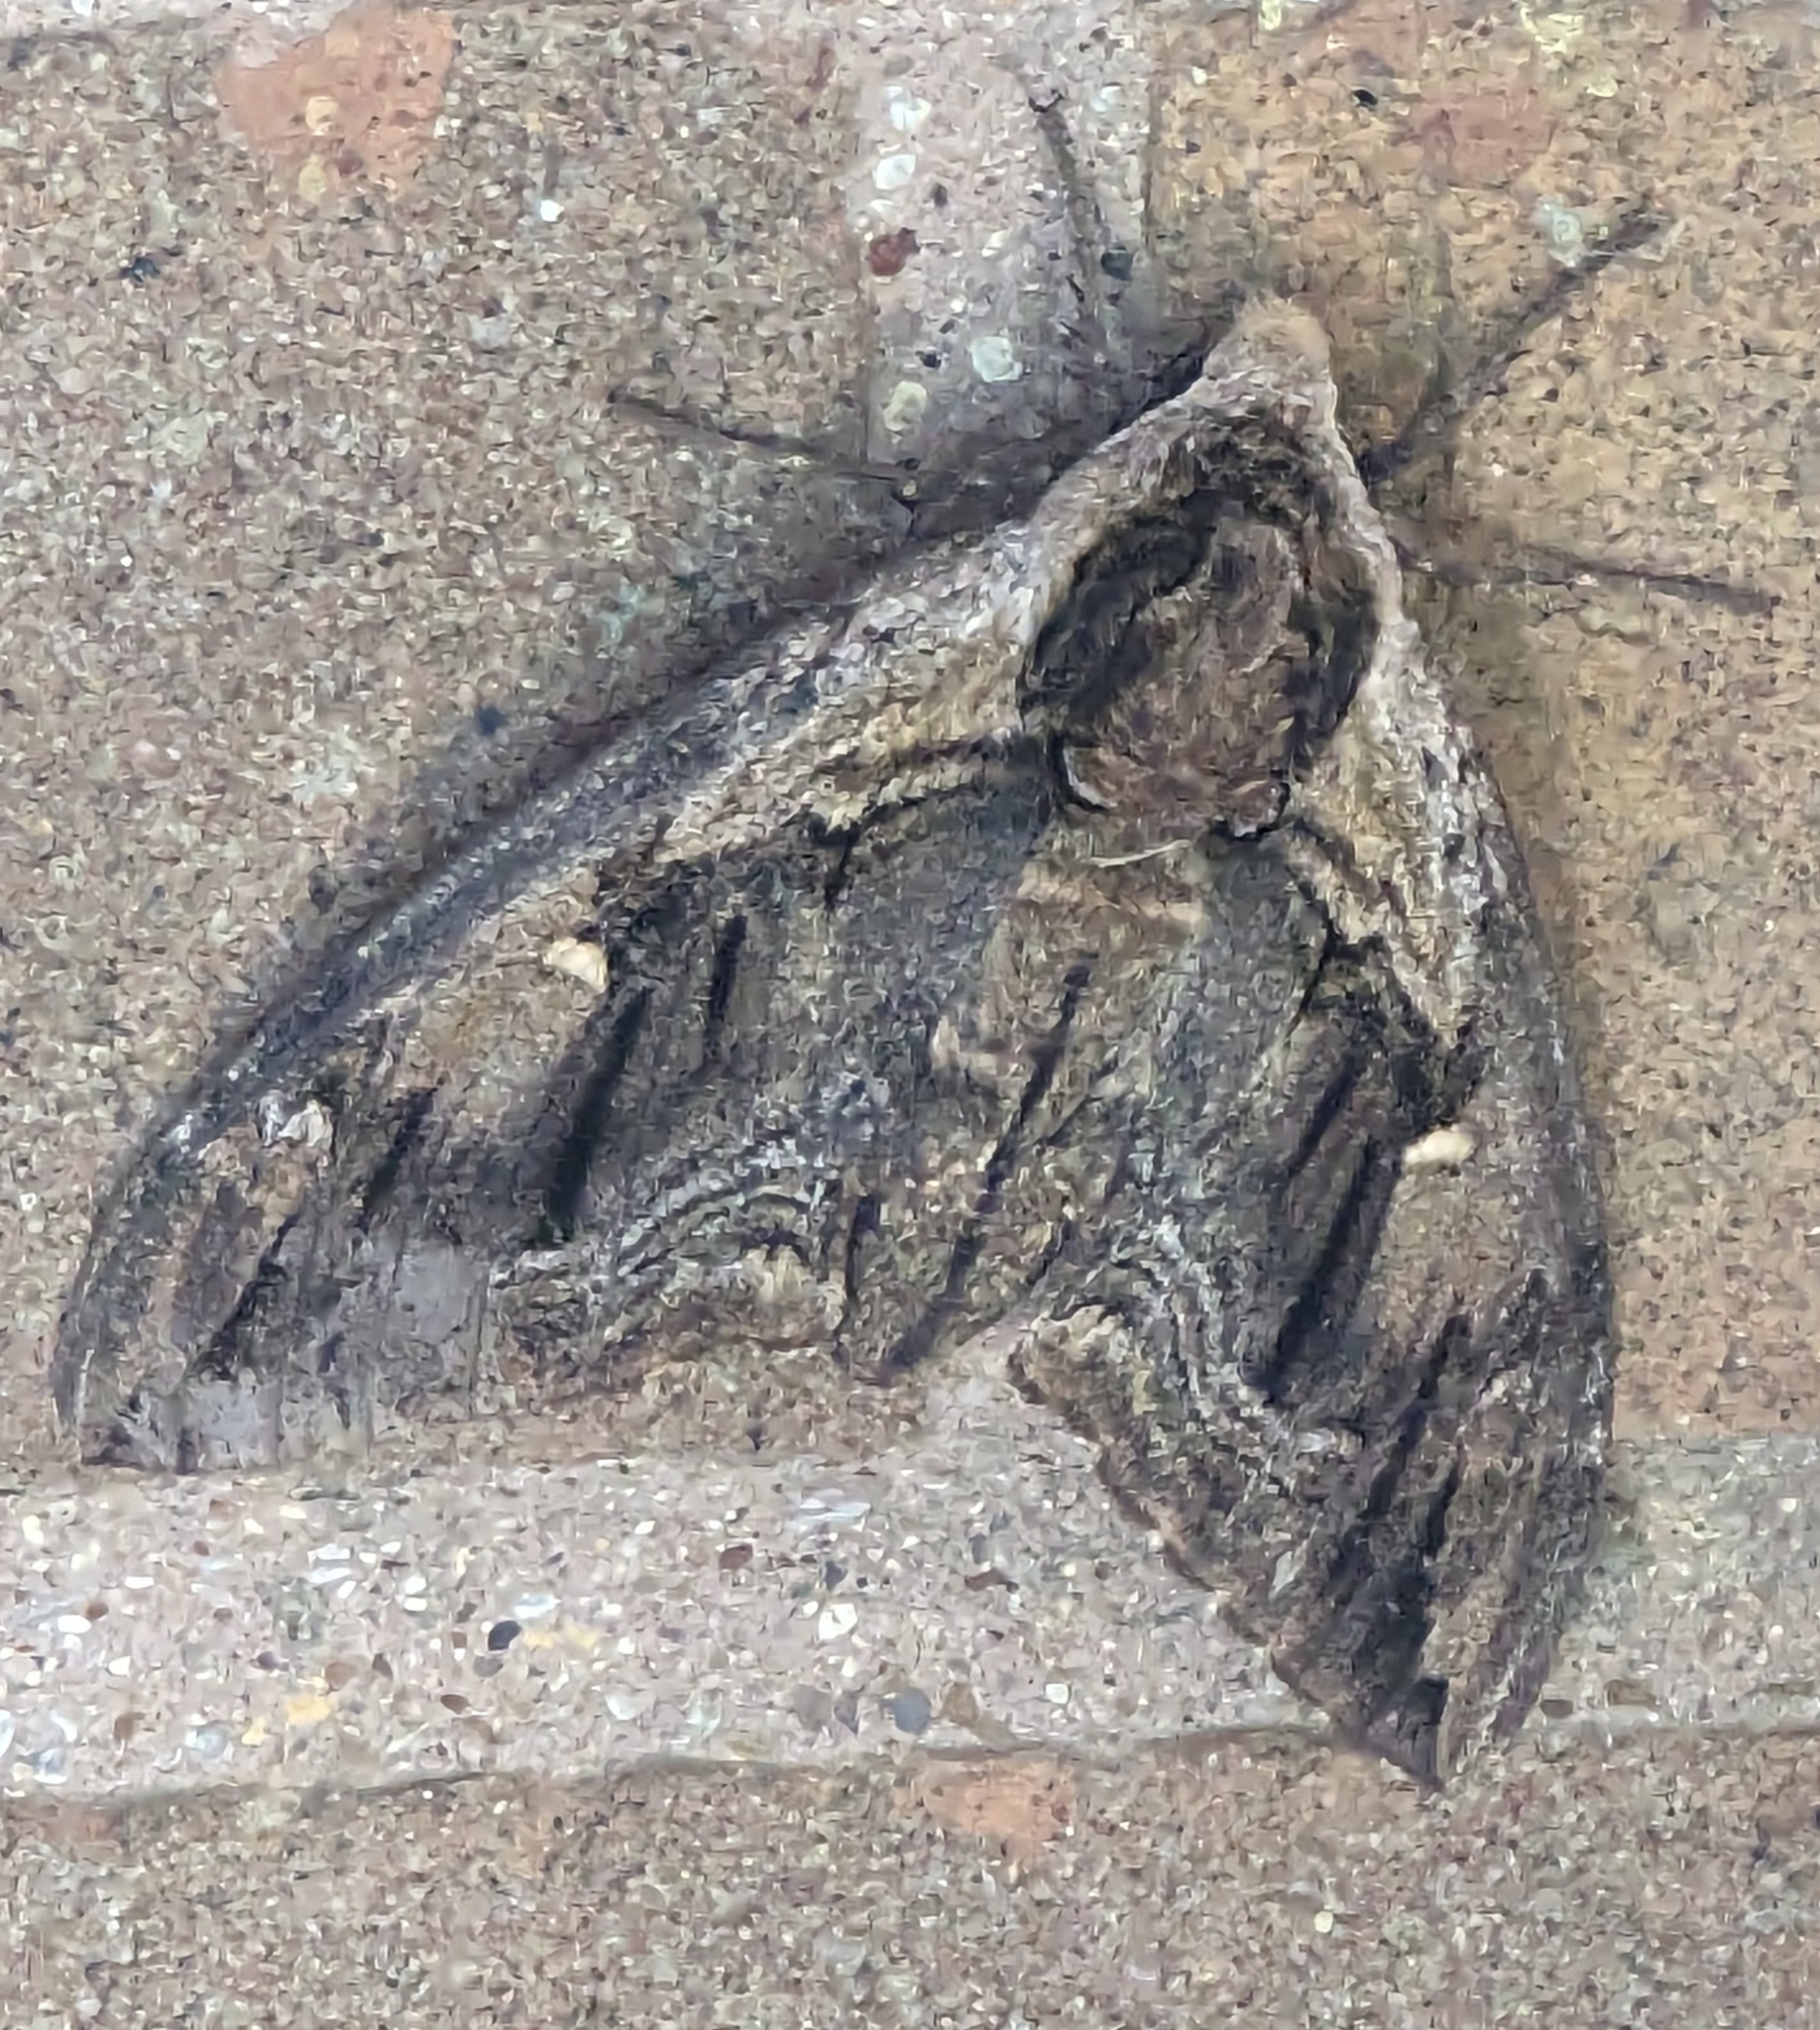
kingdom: Animalia
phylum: Arthropoda
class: Insecta
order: Lepidoptera
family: Sphingidae
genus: Ceratomia
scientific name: Ceratomia amyntor
